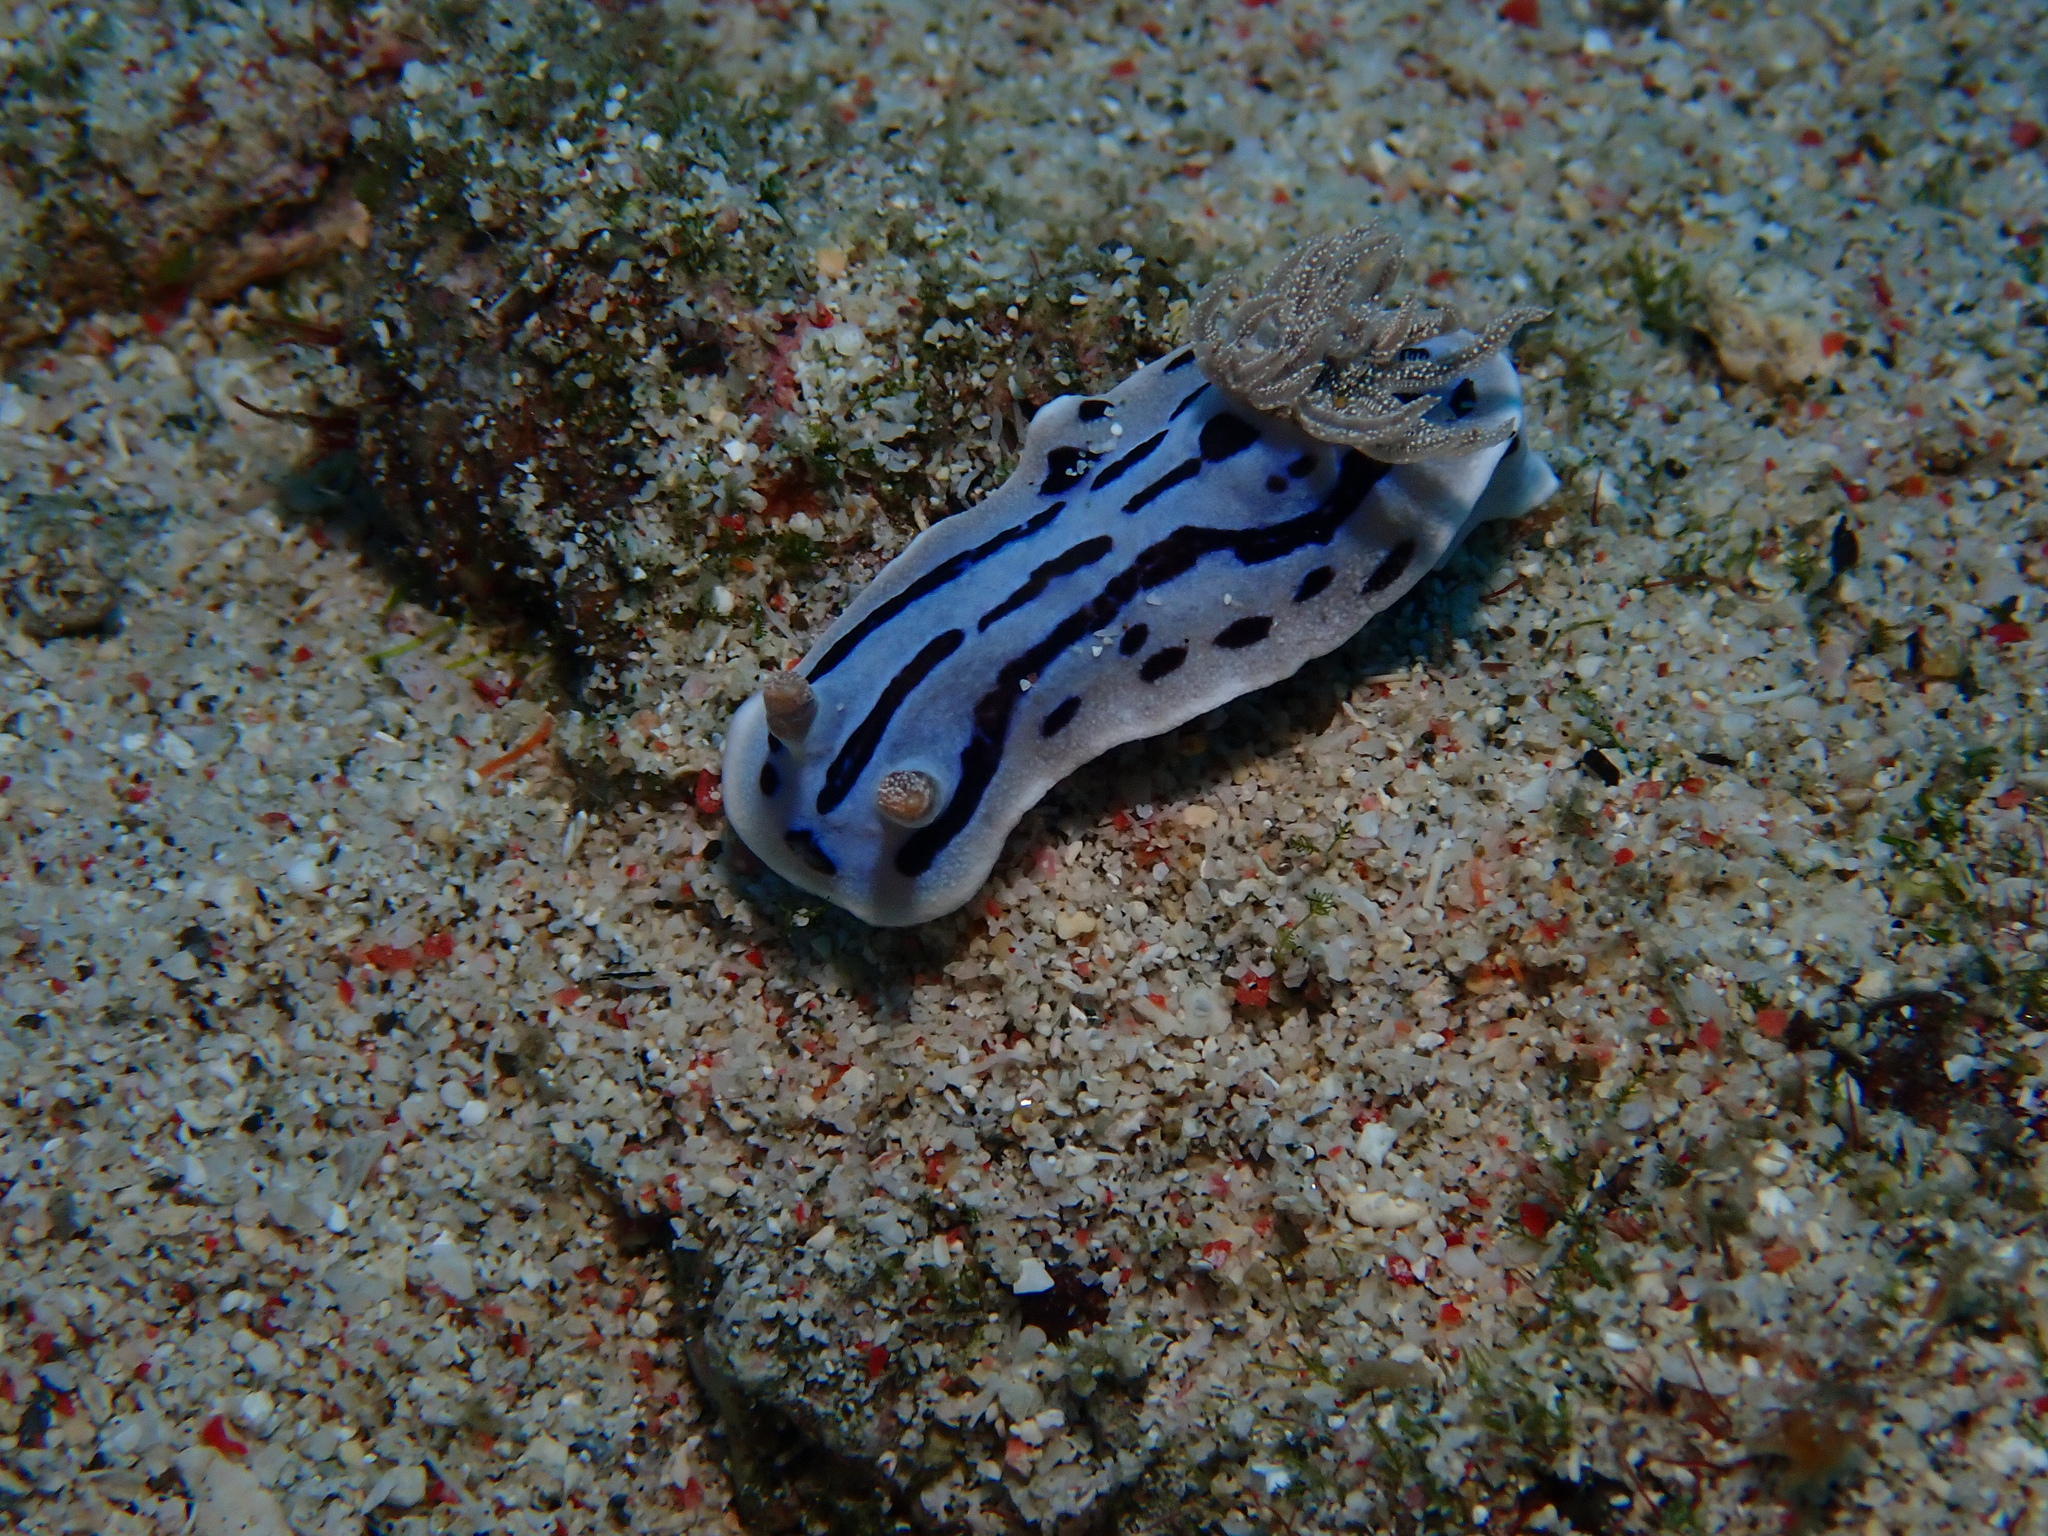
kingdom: Animalia
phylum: Mollusca
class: Gastropoda
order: Nudibranchia
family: Chromodorididae
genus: Chromodoris
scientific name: Chromodoris willani
